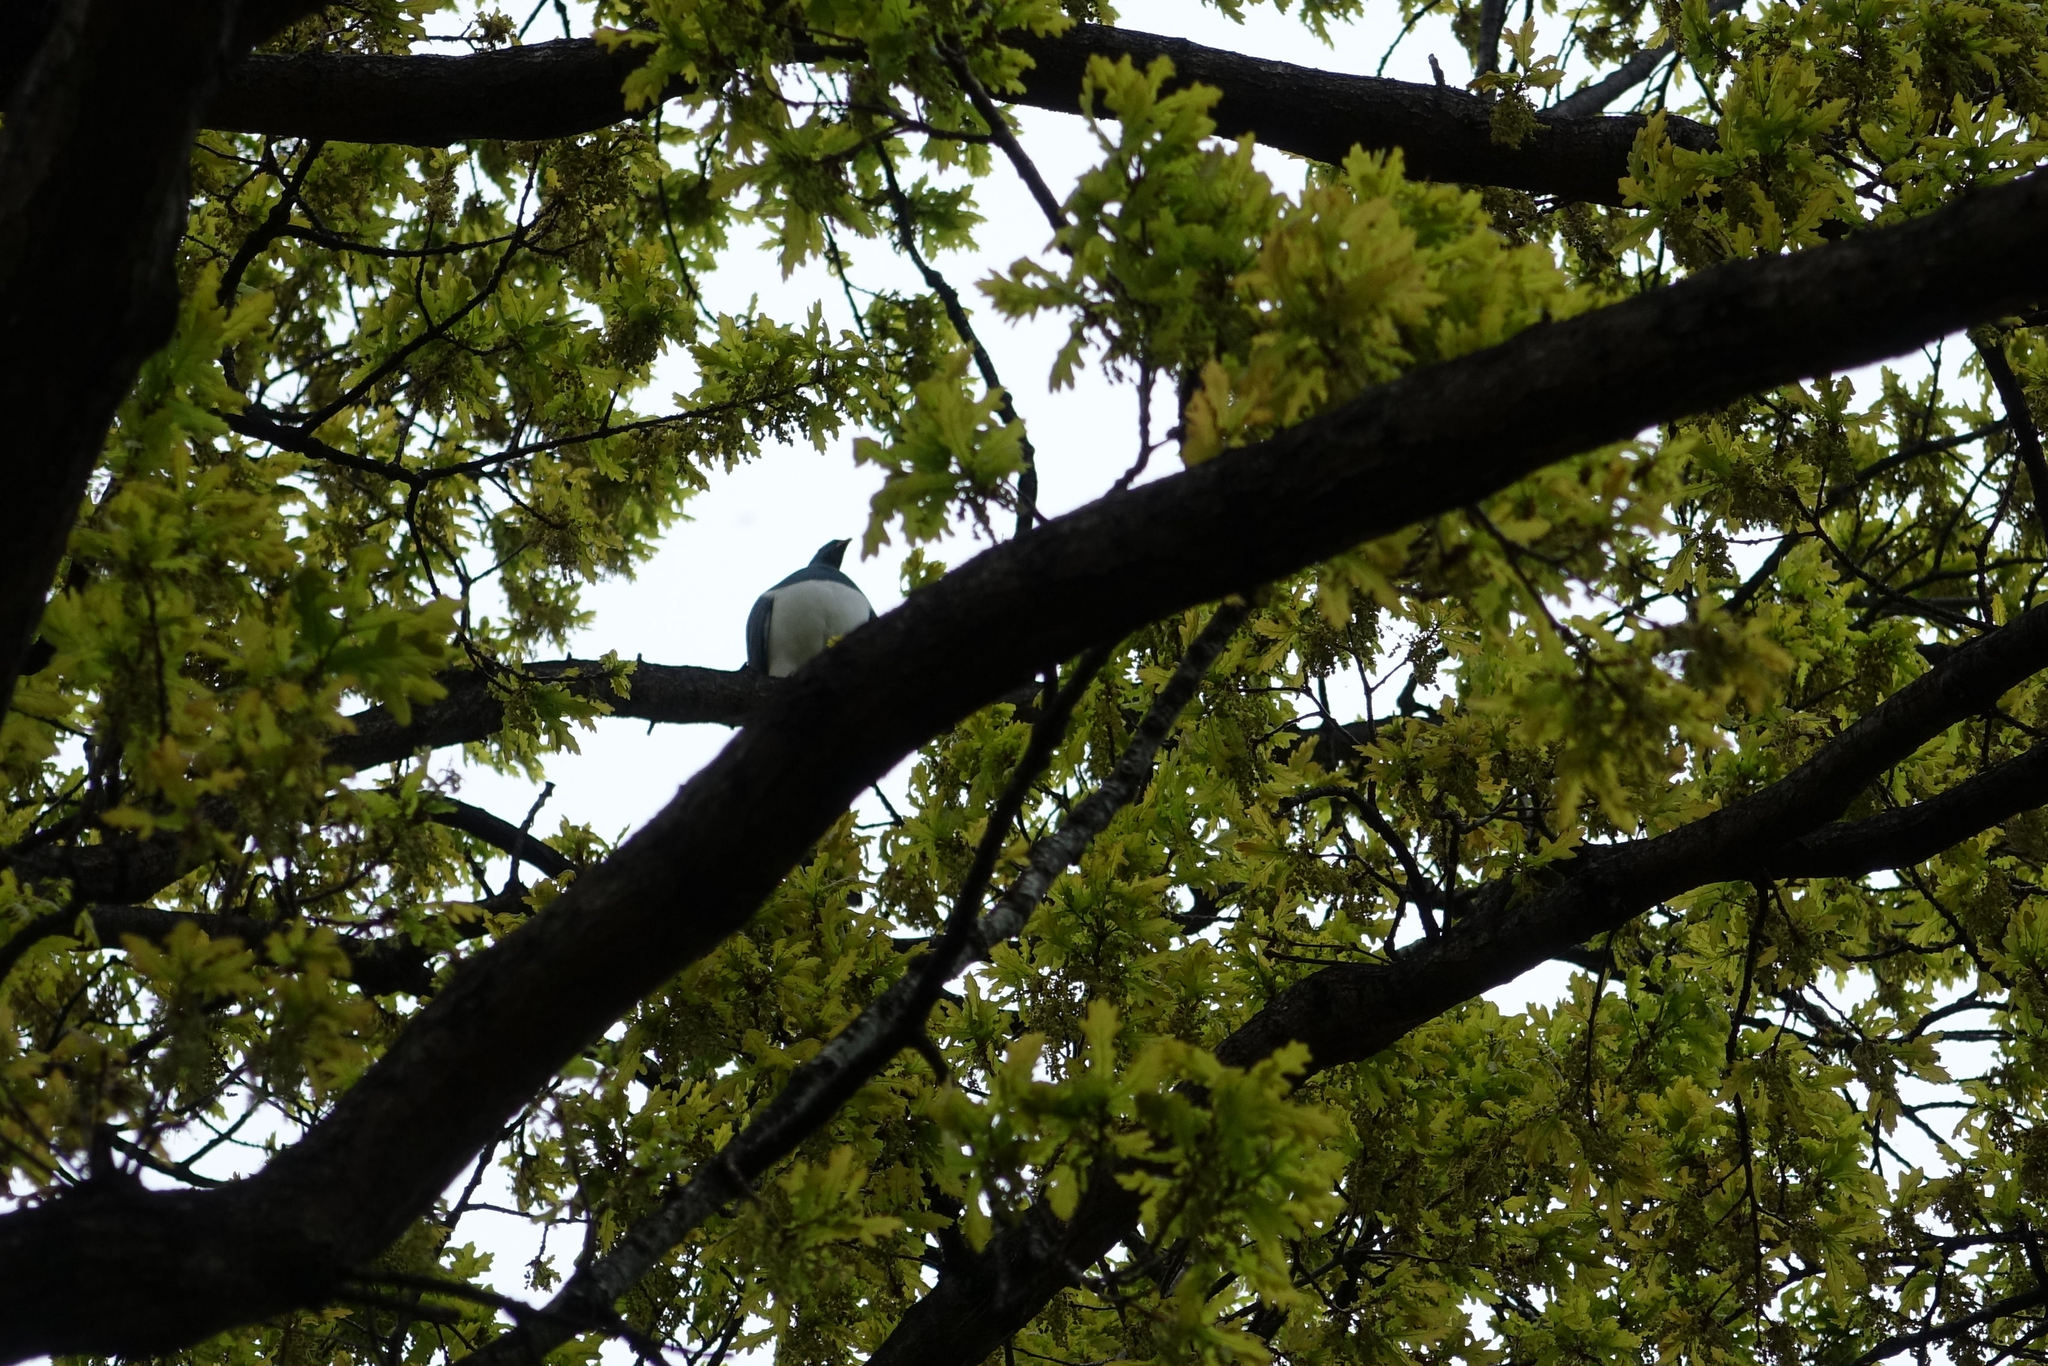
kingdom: Animalia
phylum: Chordata
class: Aves
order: Columbiformes
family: Columbidae
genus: Hemiphaga
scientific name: Hemiphaga novaeseelandiae
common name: New zealand pigeon
